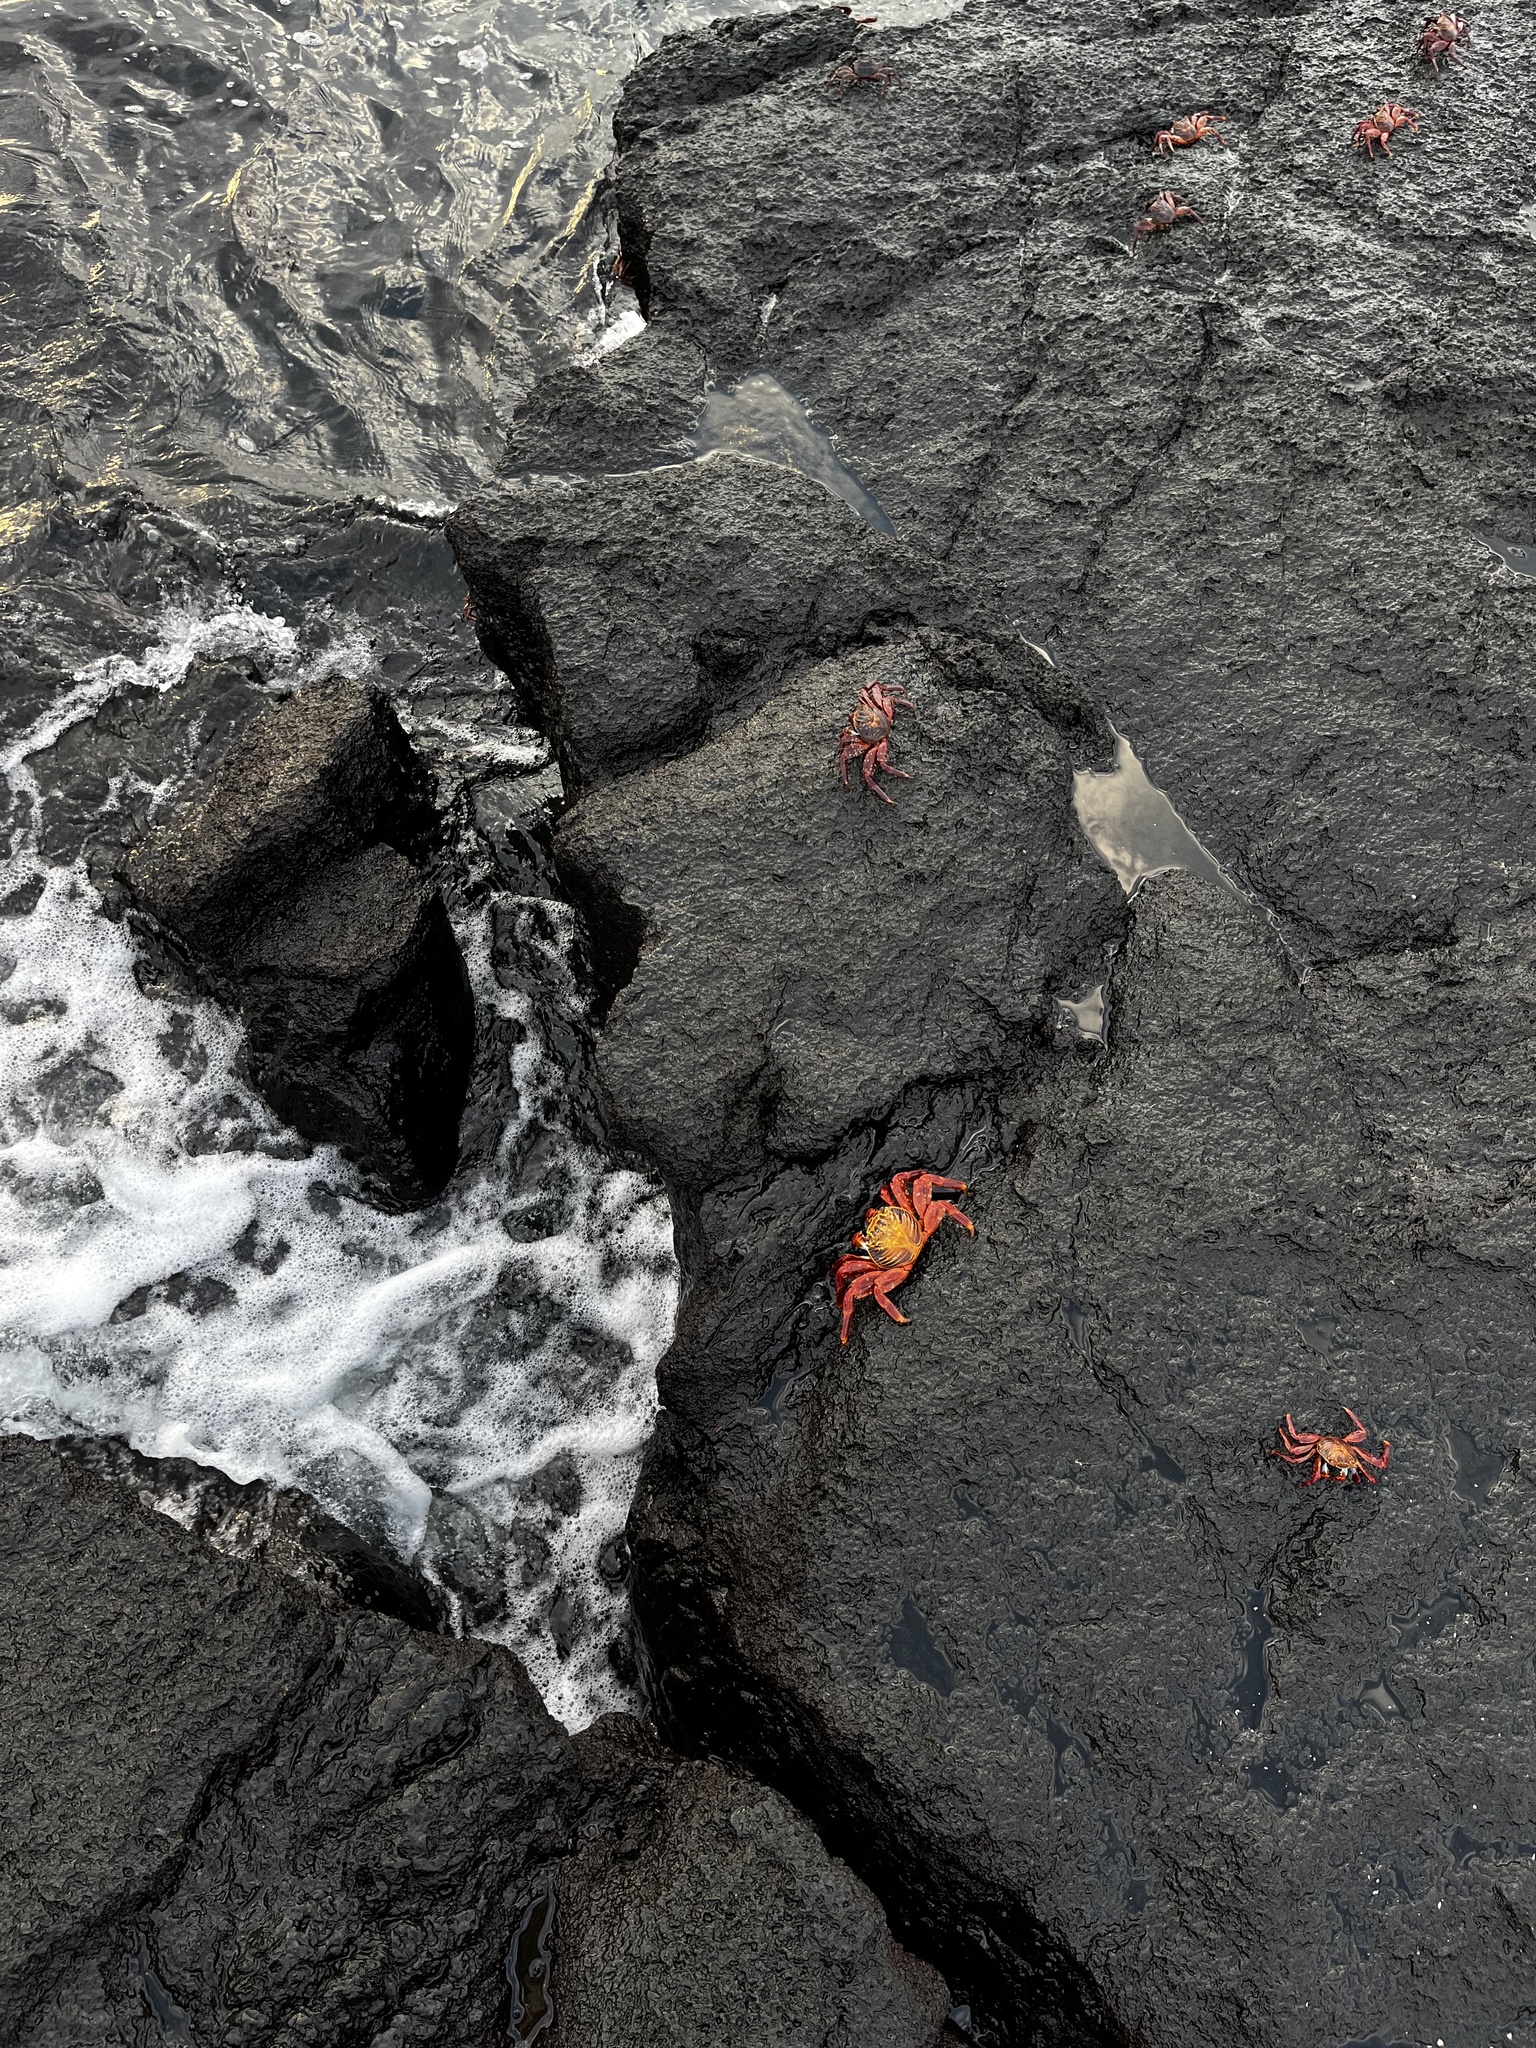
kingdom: Animalia
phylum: Arthropoda
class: Malacostraca
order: Decapoda
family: Grapsidae
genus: Grapsus
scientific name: Grapsus grapsus
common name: Sally lightfoot
